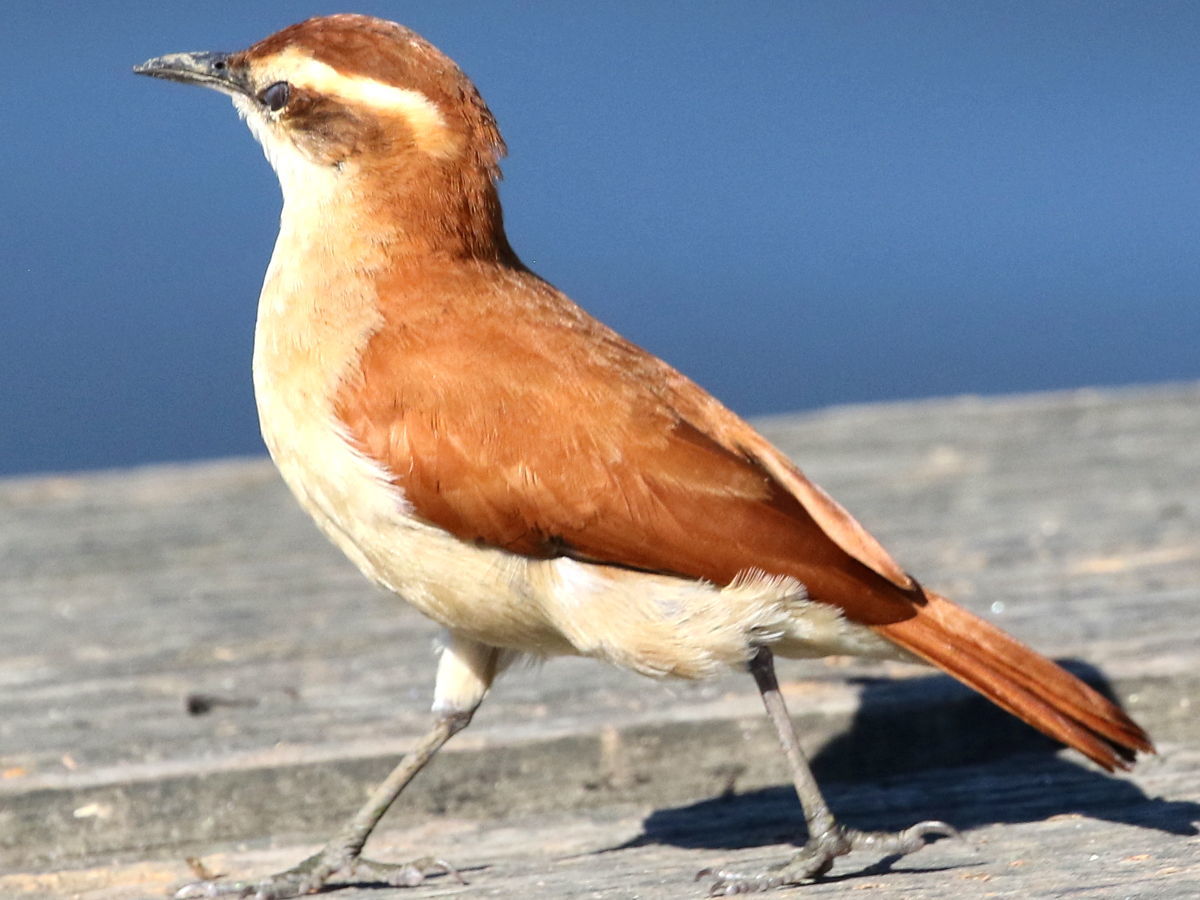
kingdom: Animalia
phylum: Chordata
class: Aves
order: Passeriformes
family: Furnariidae
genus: Furnarius
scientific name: Furnarius figulus
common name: Band-tailed hornero
